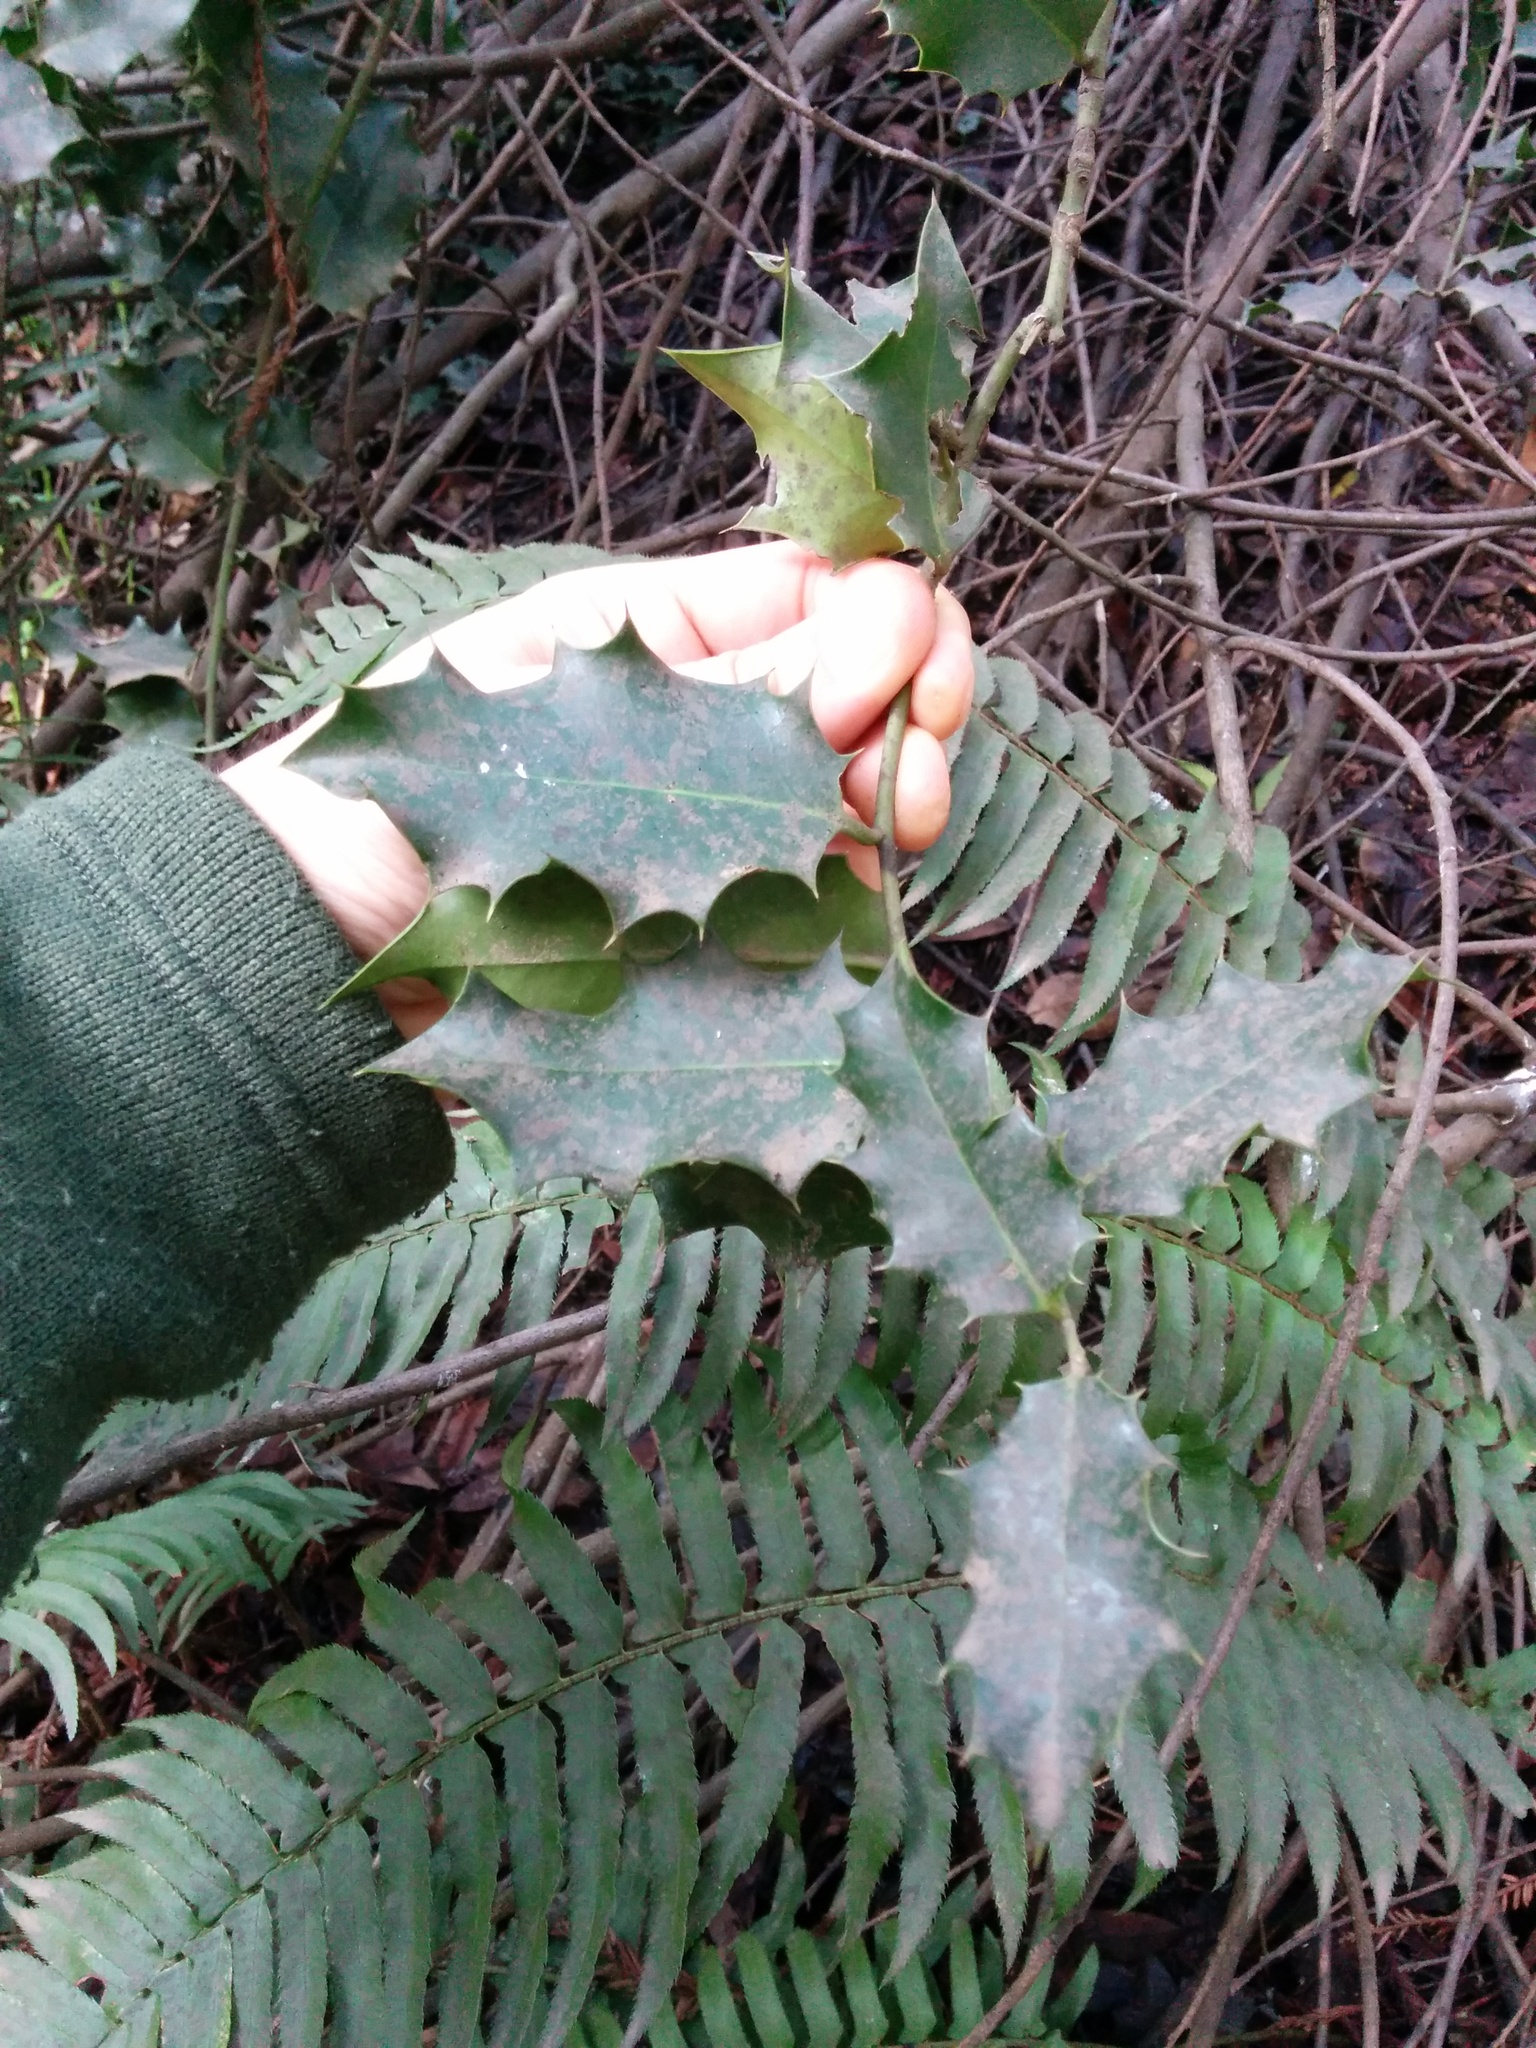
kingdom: Plantae
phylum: Tracheophyta
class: Magnoliopsida
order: Aquifoliales
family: Aquifoliaceae
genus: Ilex
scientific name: Ilex aquifolium
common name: English holly
